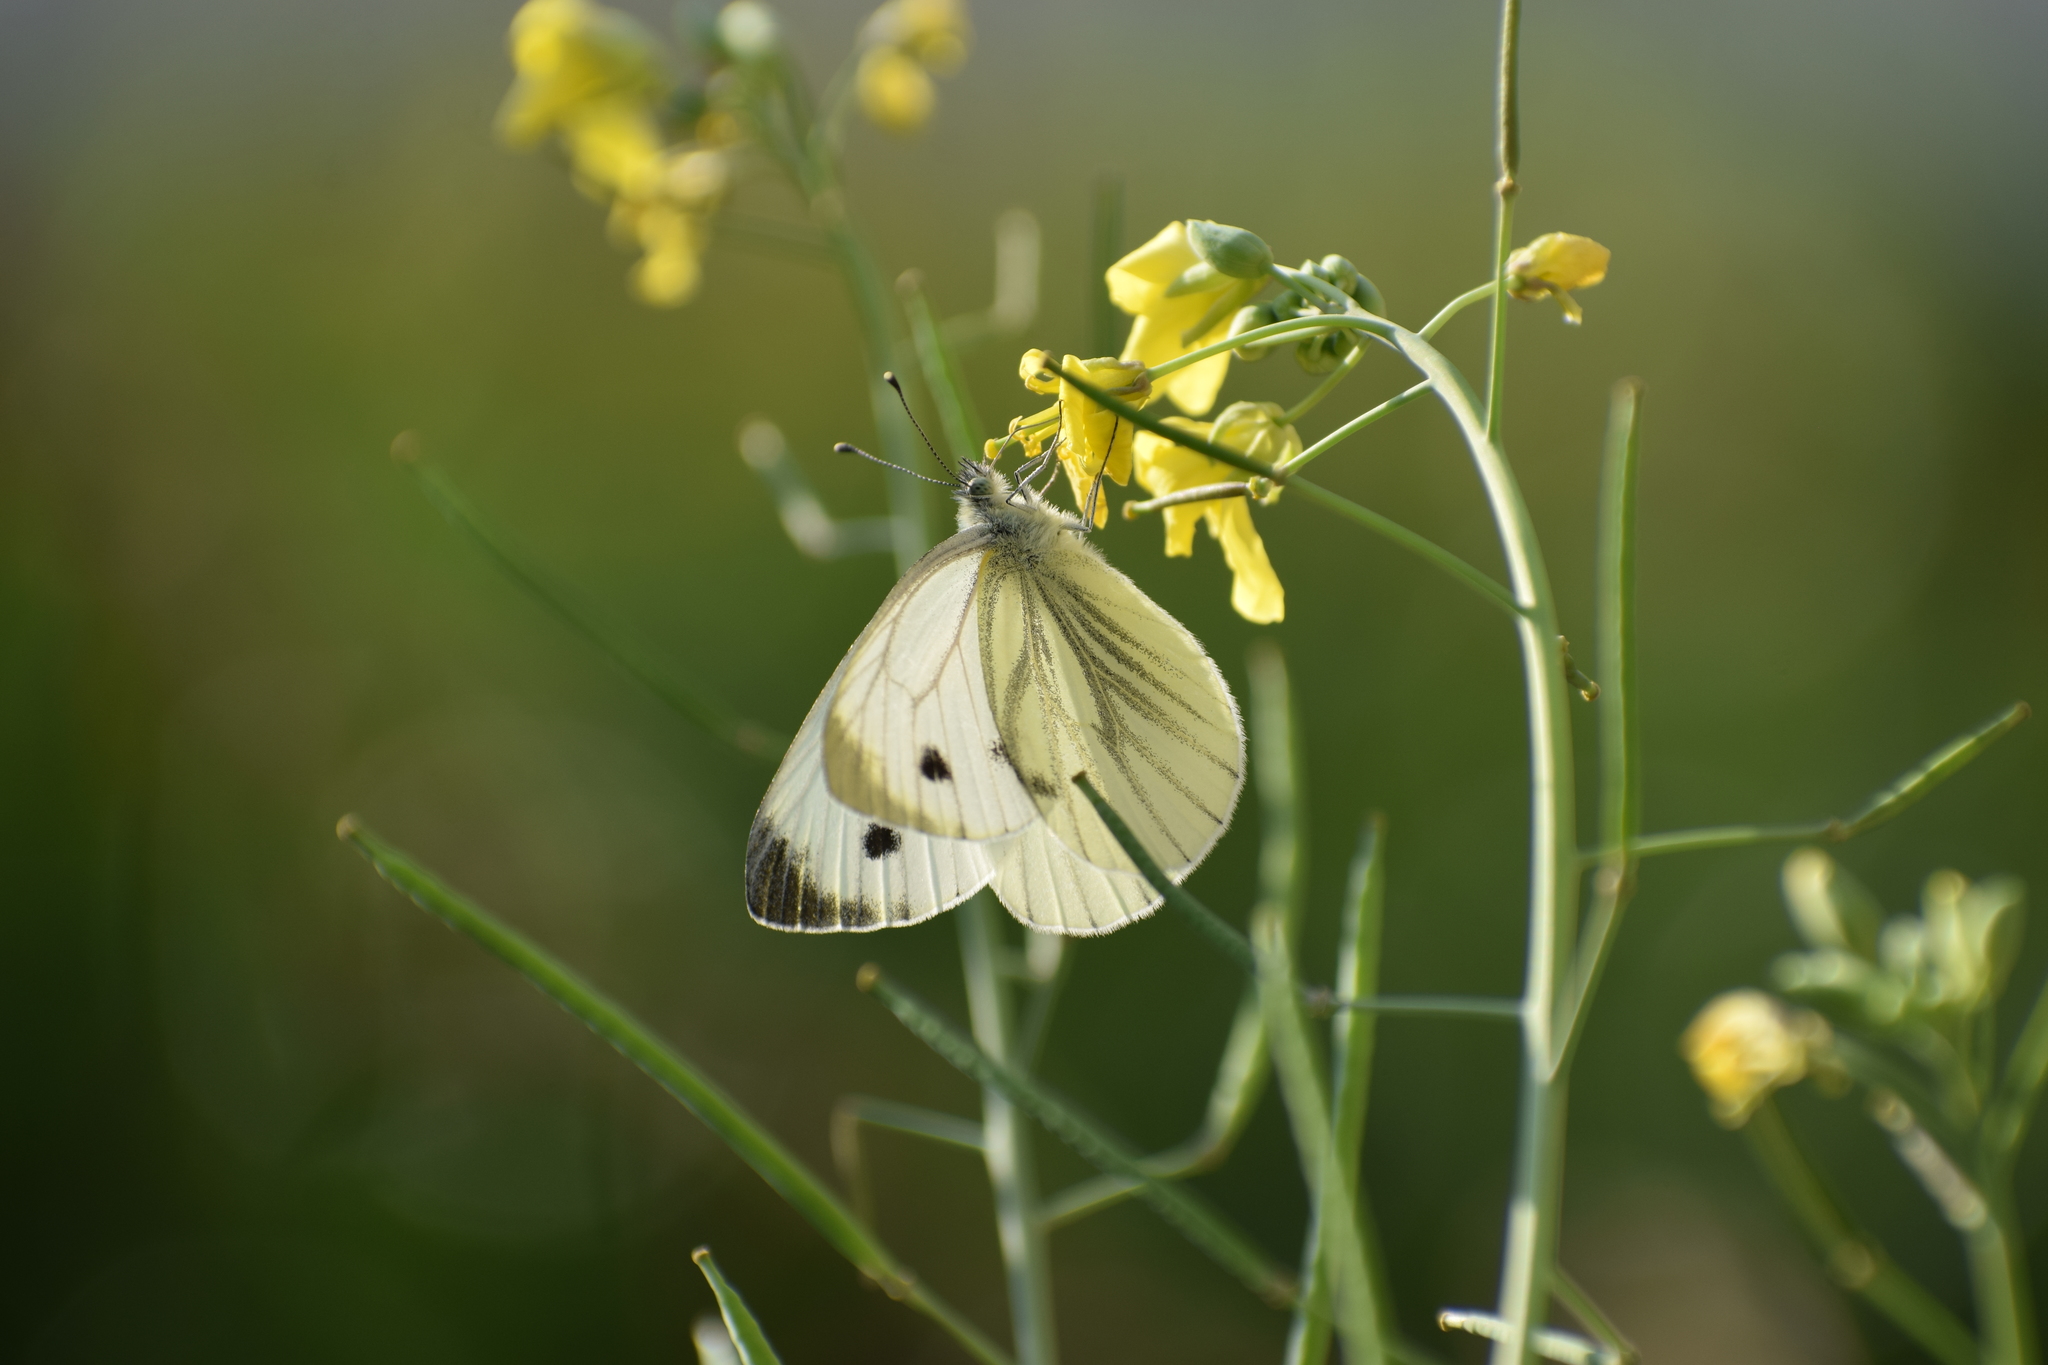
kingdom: Animalia
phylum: Arthropoda
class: Insecta
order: Lepidoptera
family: Pieridae
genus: Pieris
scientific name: Pieris napi
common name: Green-veined white
